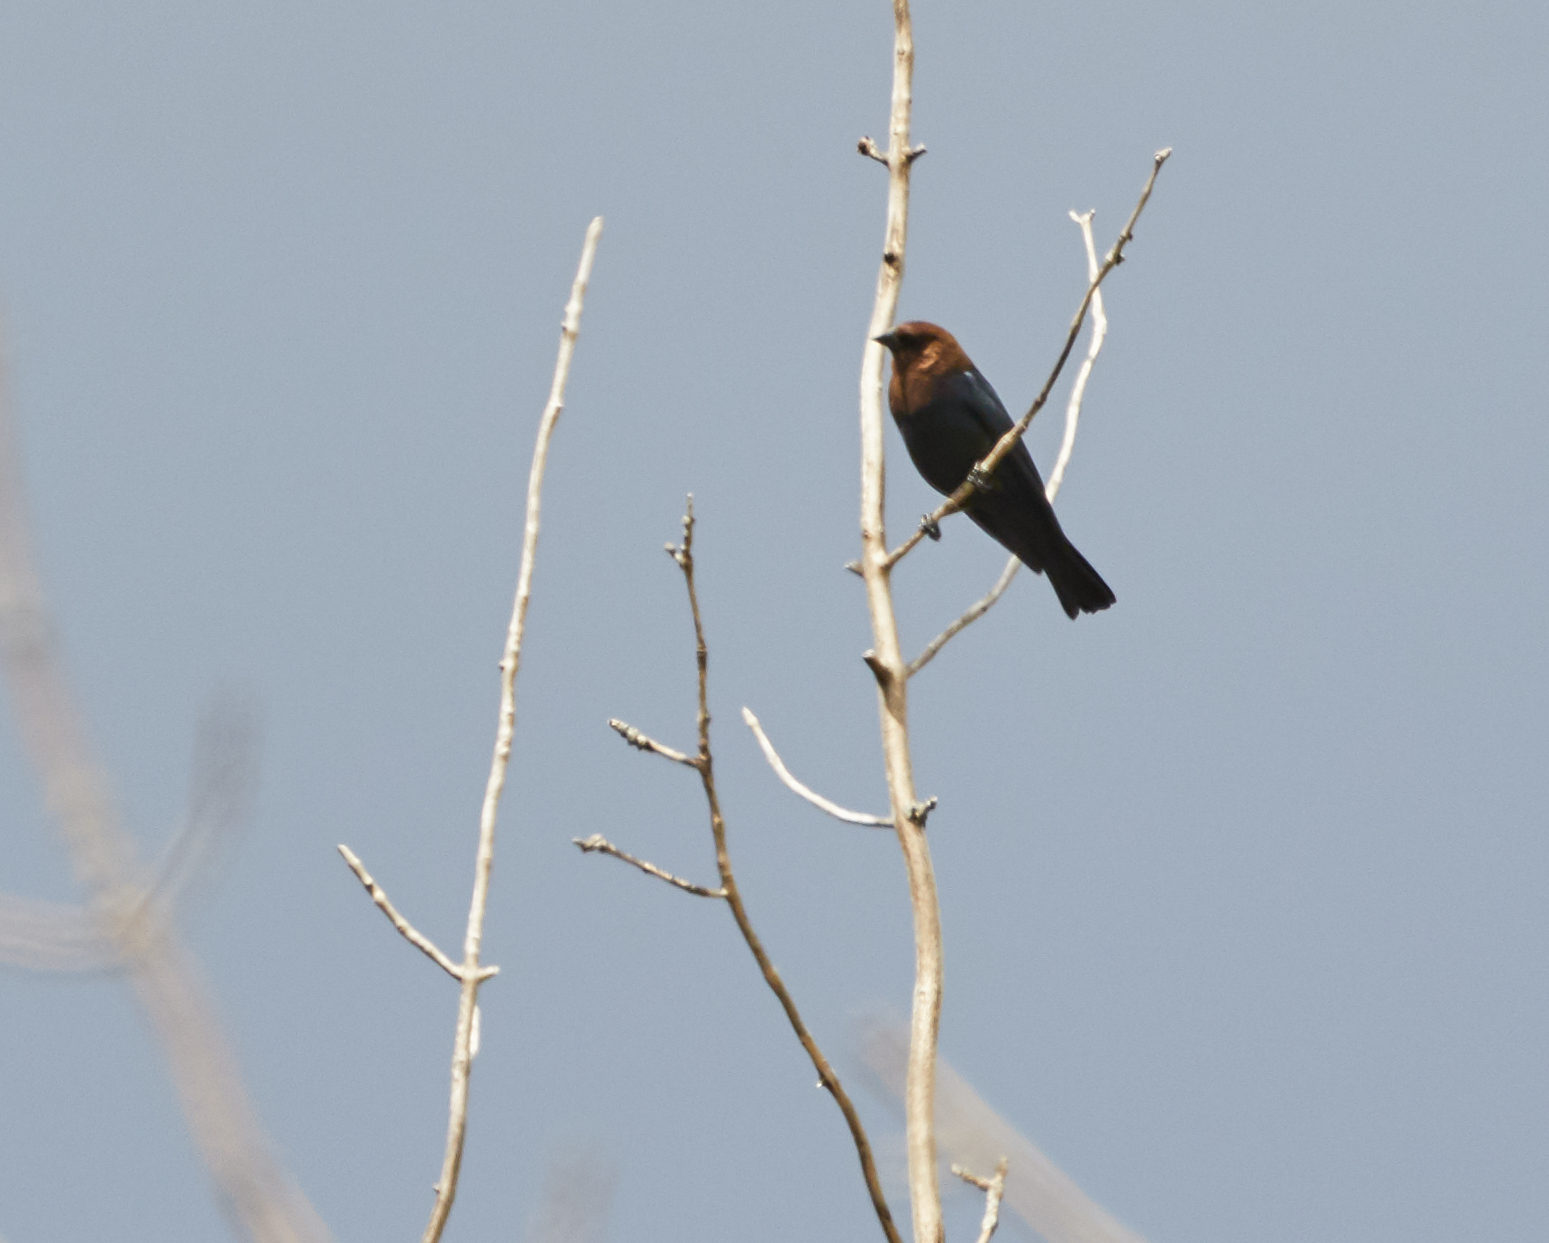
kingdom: Animalia
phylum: Chordata
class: Aves
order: Passeriformes
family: Icteridae
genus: Molothrus
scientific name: Molothrus ater
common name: Brown-headed cowbird
